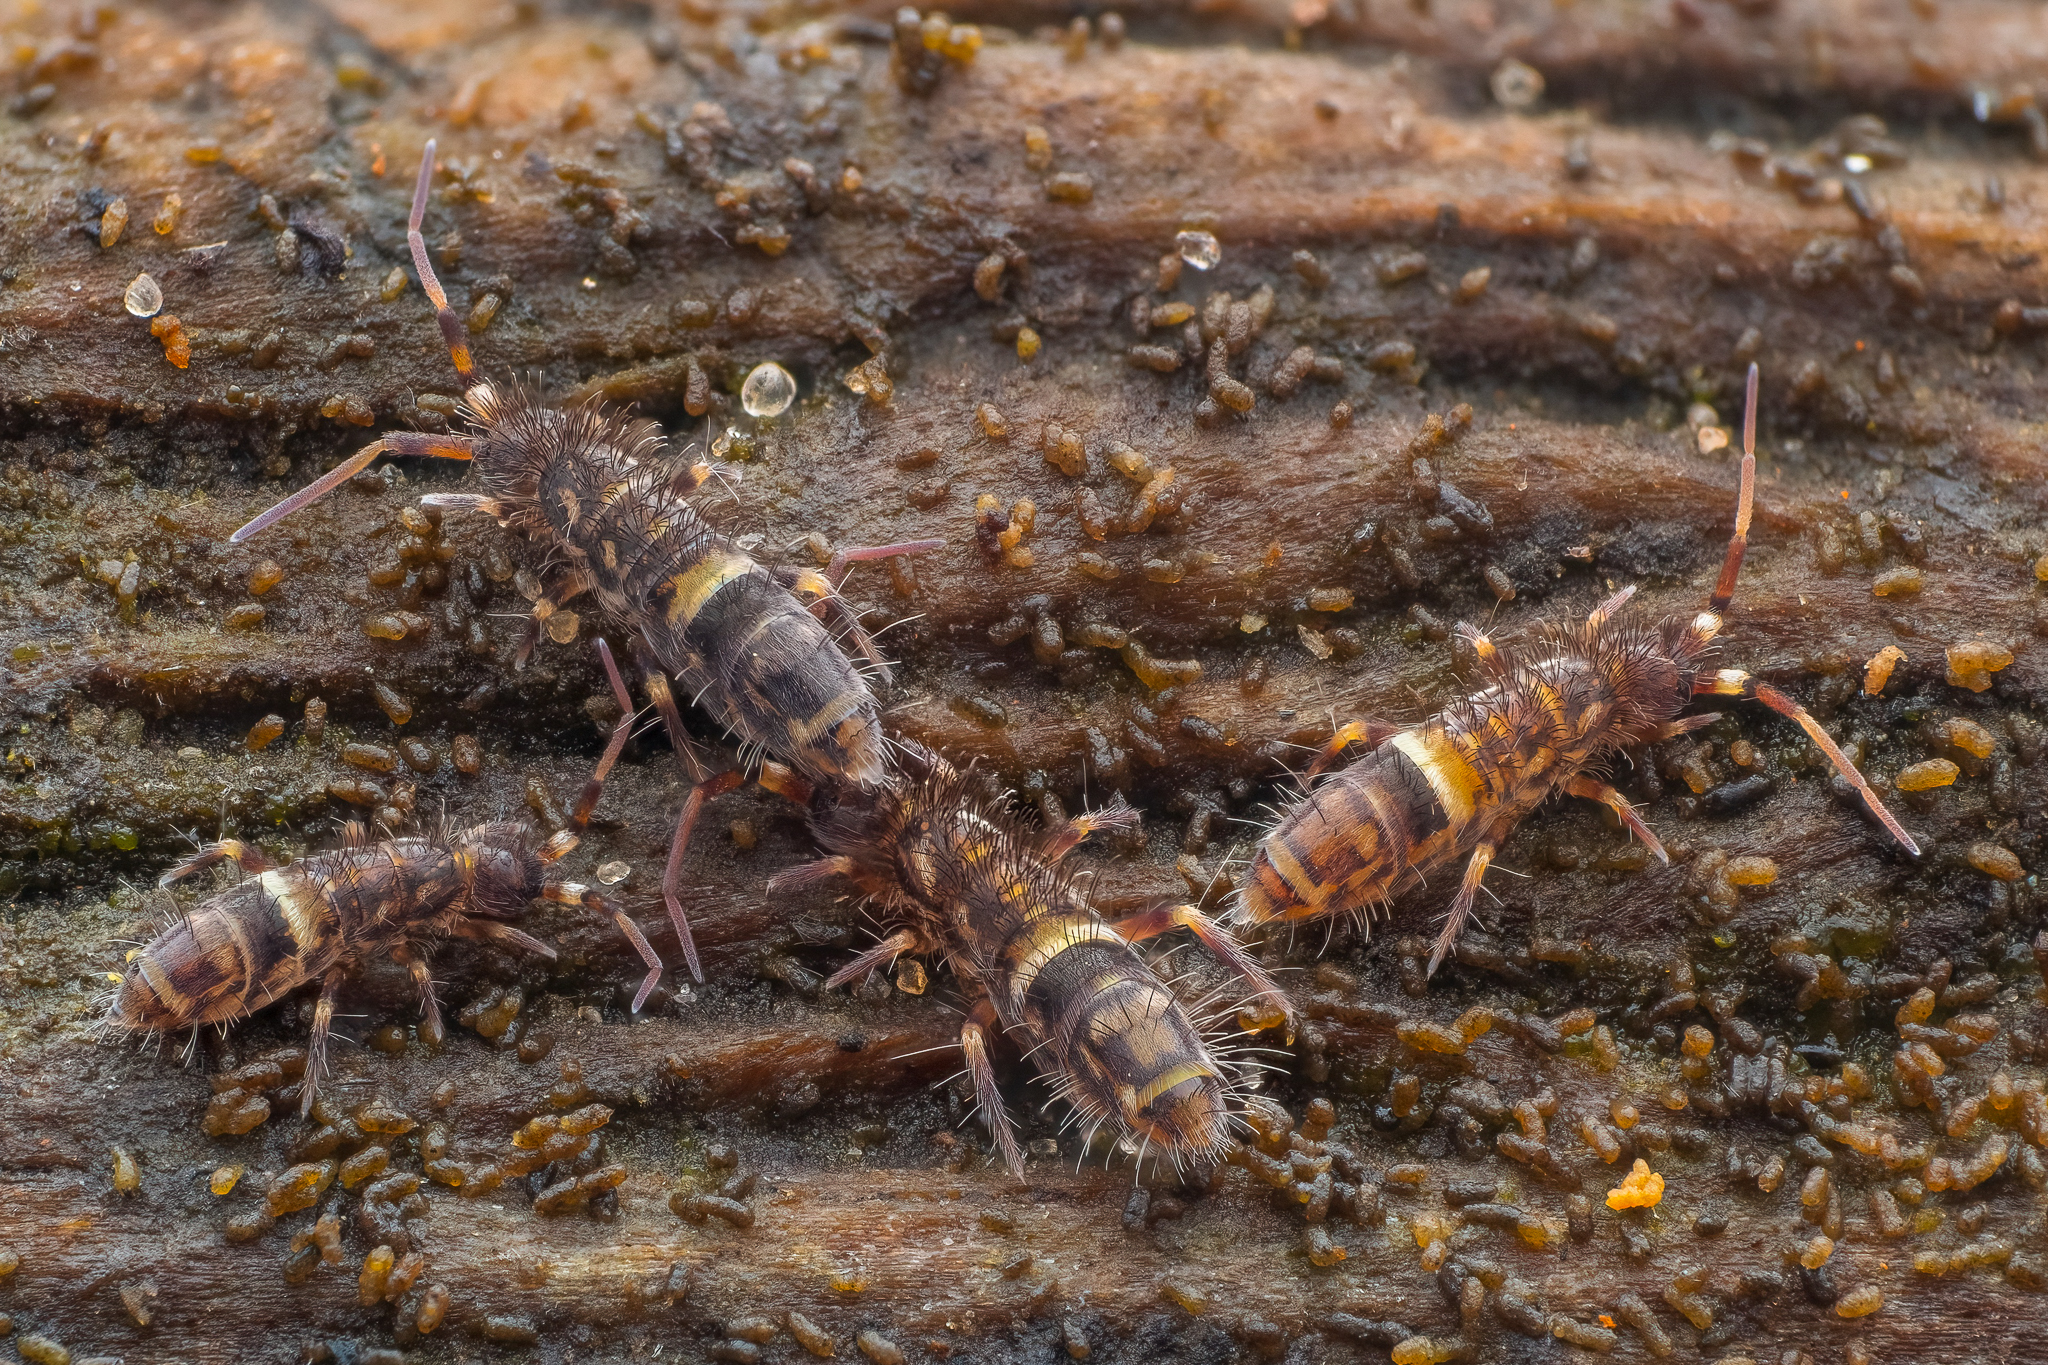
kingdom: Animalia
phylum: Arthropoda
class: Collembola
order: Entomobryomorpha
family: Orchesellidae
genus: Orchesella
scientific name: Orchesella cincta
